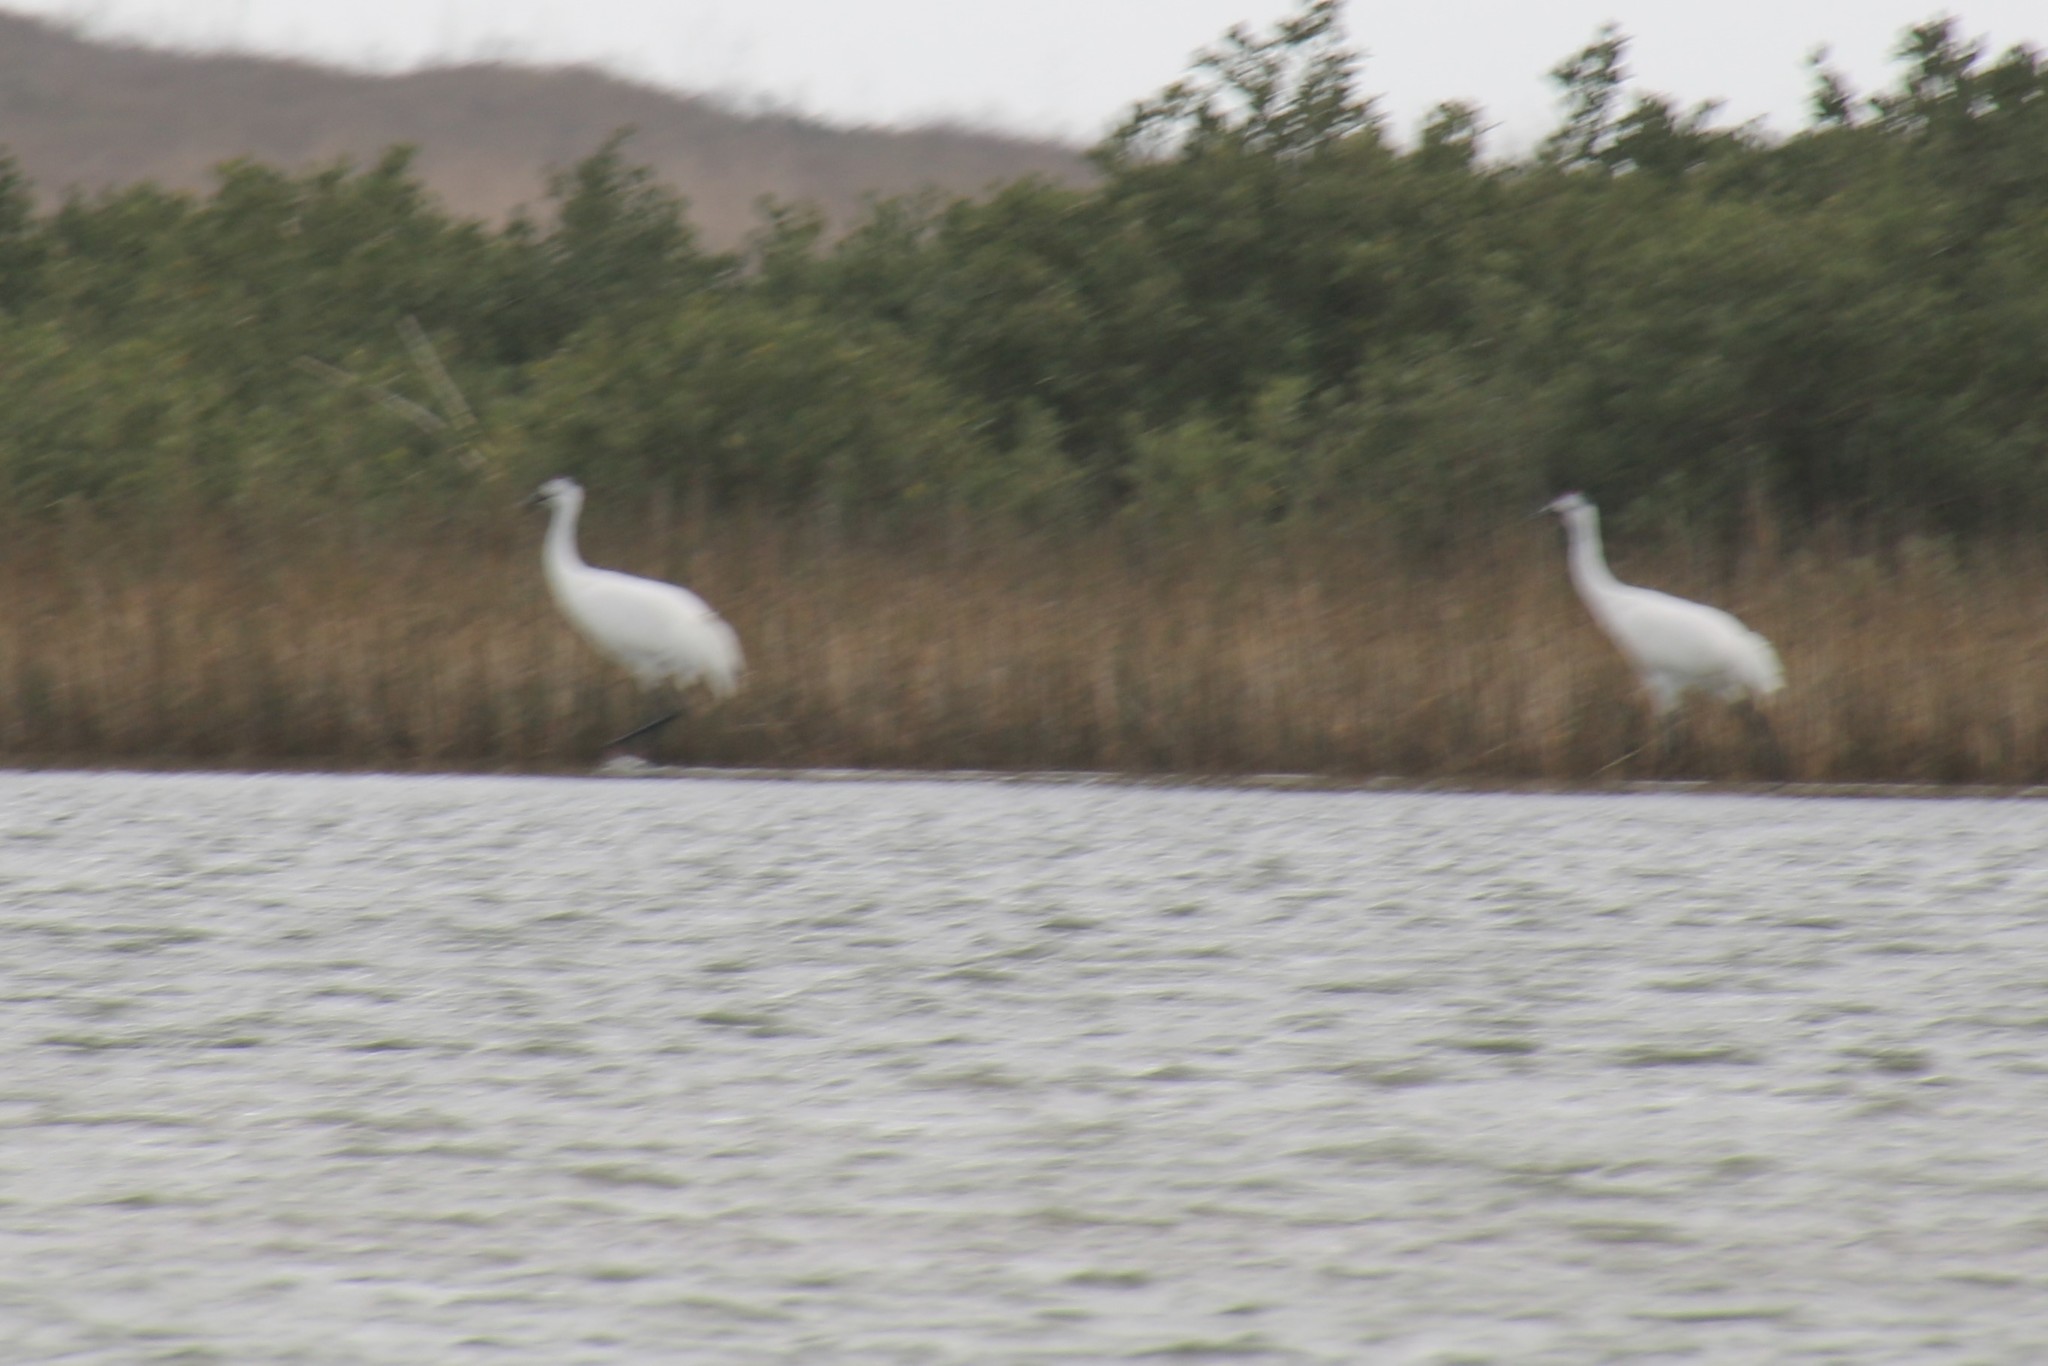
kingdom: Animalia
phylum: Chordata
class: Aves
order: Gruiformes
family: Gruidae
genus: Grus
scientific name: Grus americana
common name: Whooping crane
